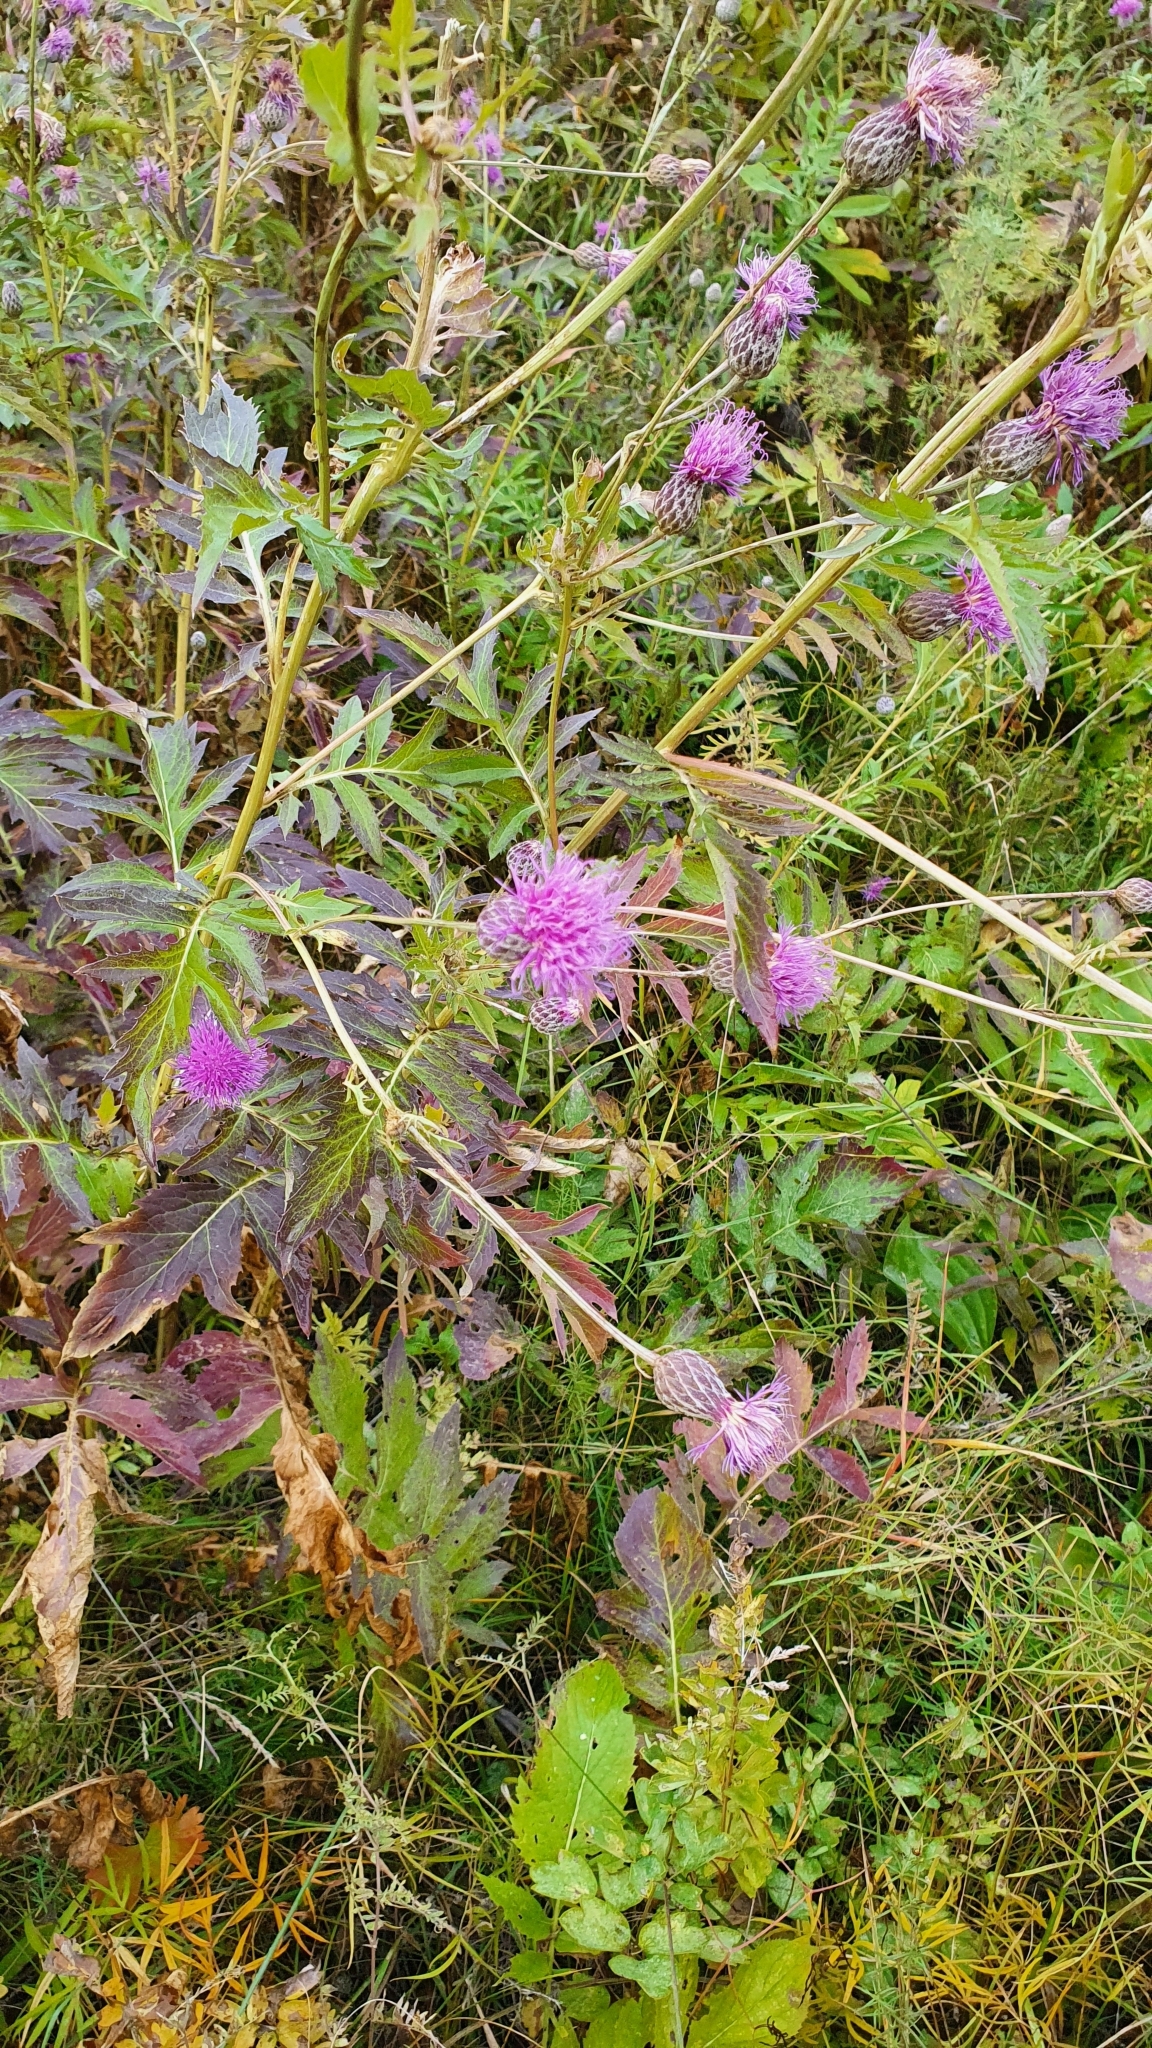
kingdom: Plantae
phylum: Tracheophyta
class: Magnoliopsida
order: Asterales
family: Asteraceae
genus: Serratula
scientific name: Serratula coronata
